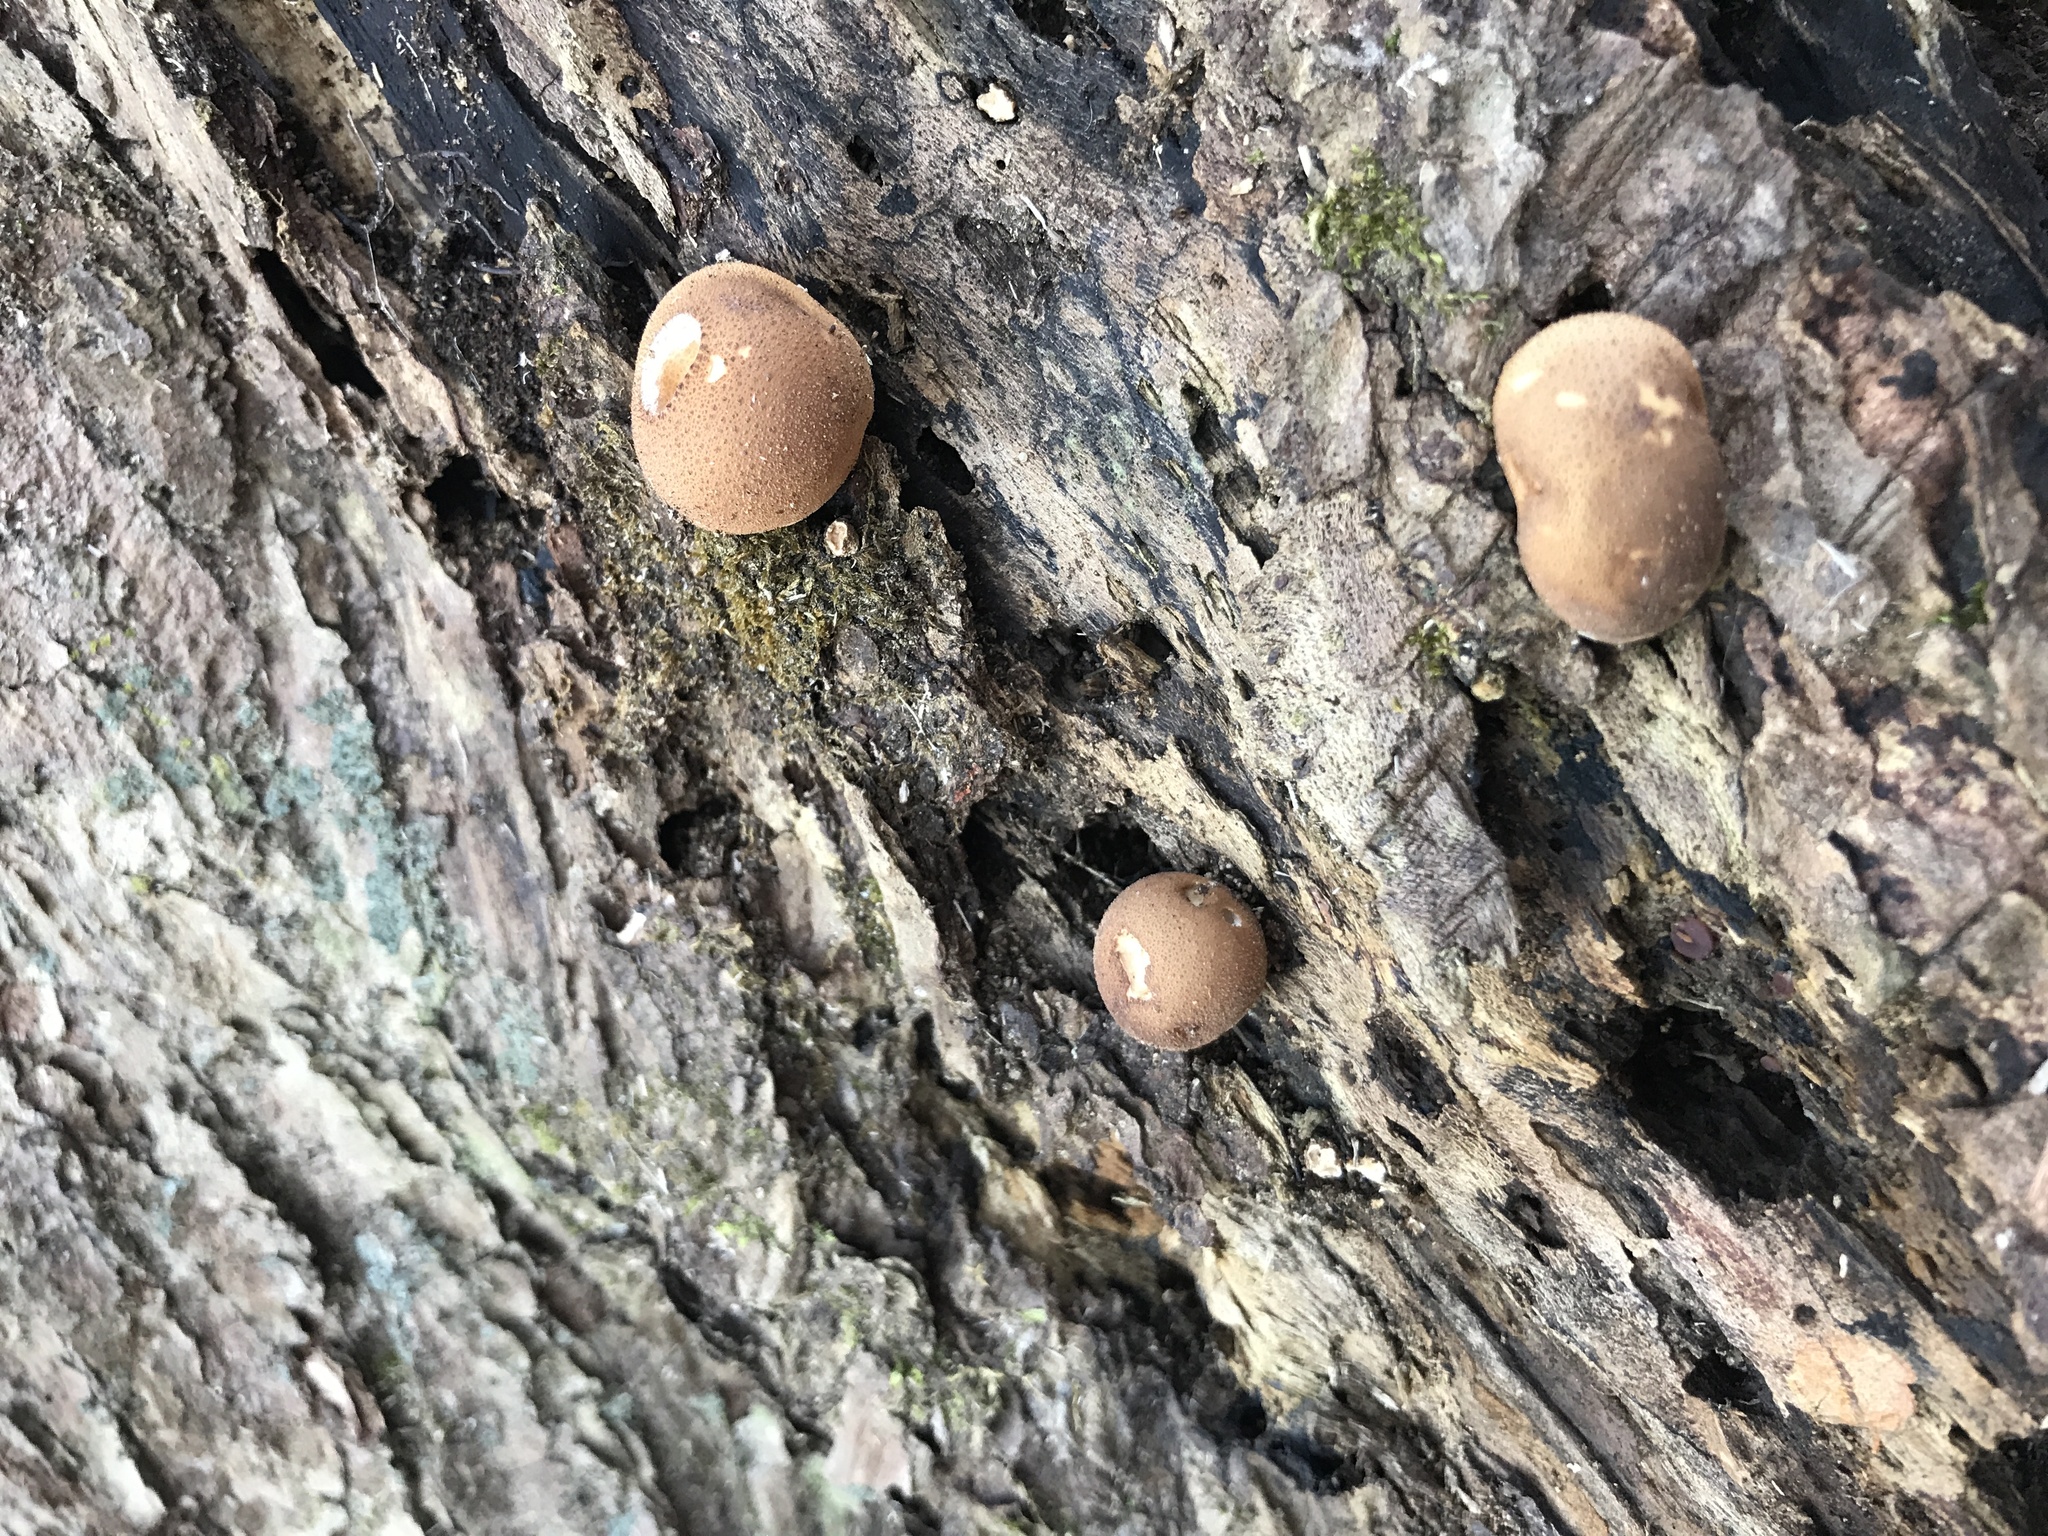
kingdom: Fungi
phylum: Basidiomycota
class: Agaricomycetes
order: Agaricales
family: Lycoperdaceae
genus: Apioperdon
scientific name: Apioperdon pyriforme
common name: Pear-shaped puffball
